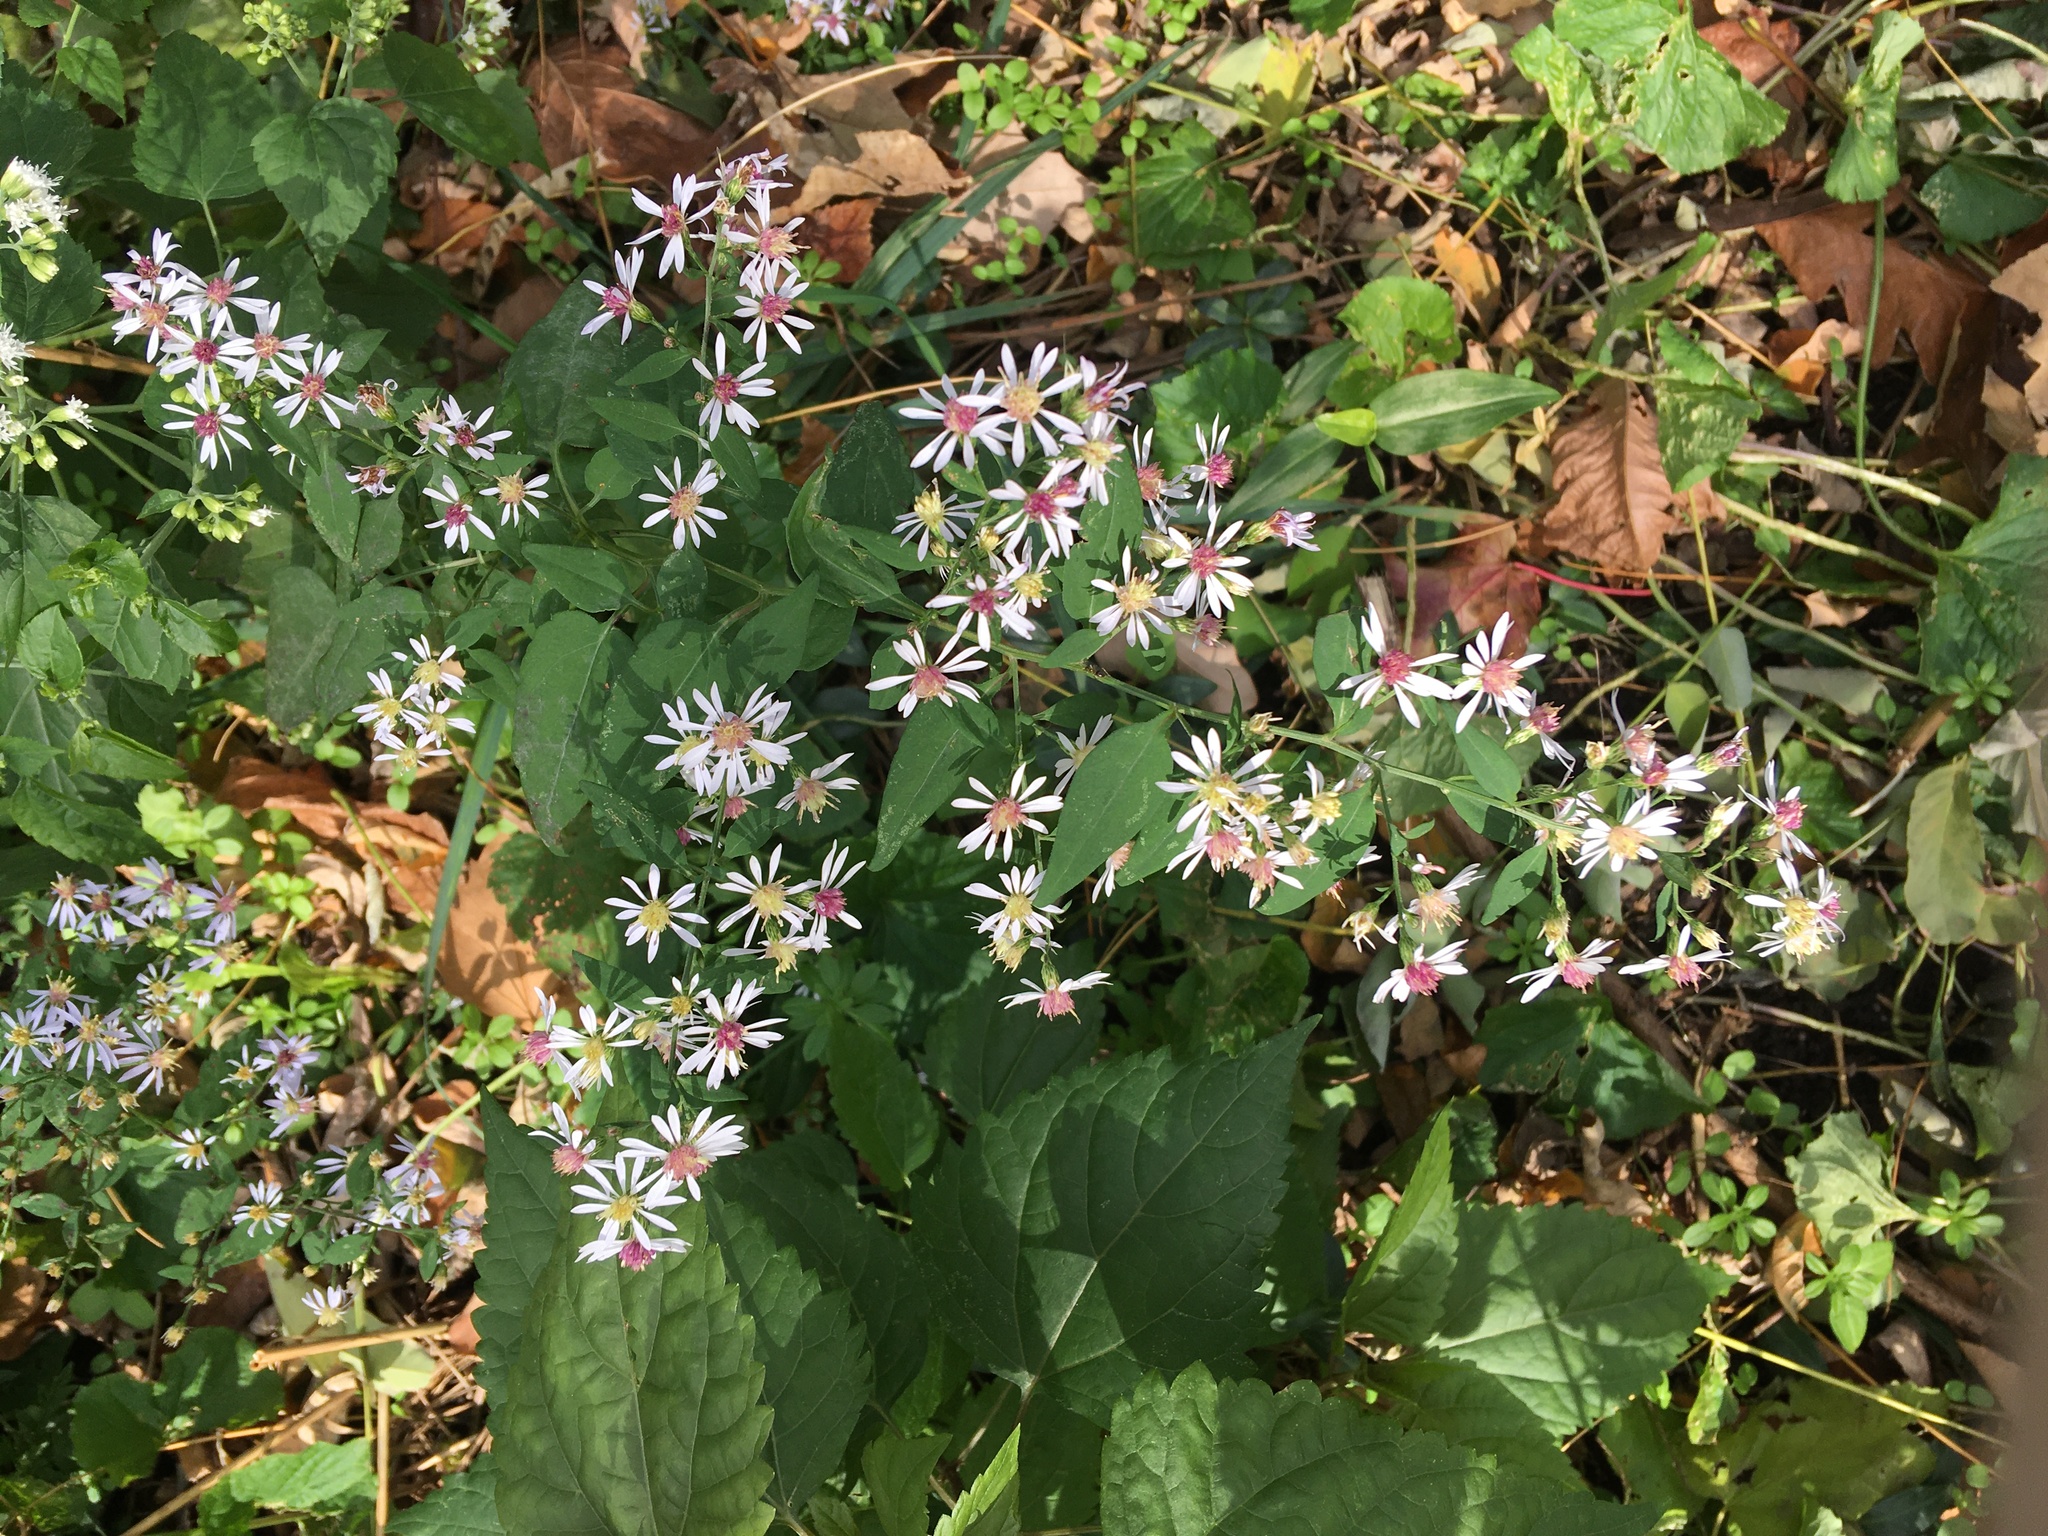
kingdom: Plantae
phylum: Tracheophyta
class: Magnoliopsida
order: Asterales
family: Asteraceae
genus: Symphyotrichum
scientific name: Symphyotrichum cordifolium
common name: Beeweed
